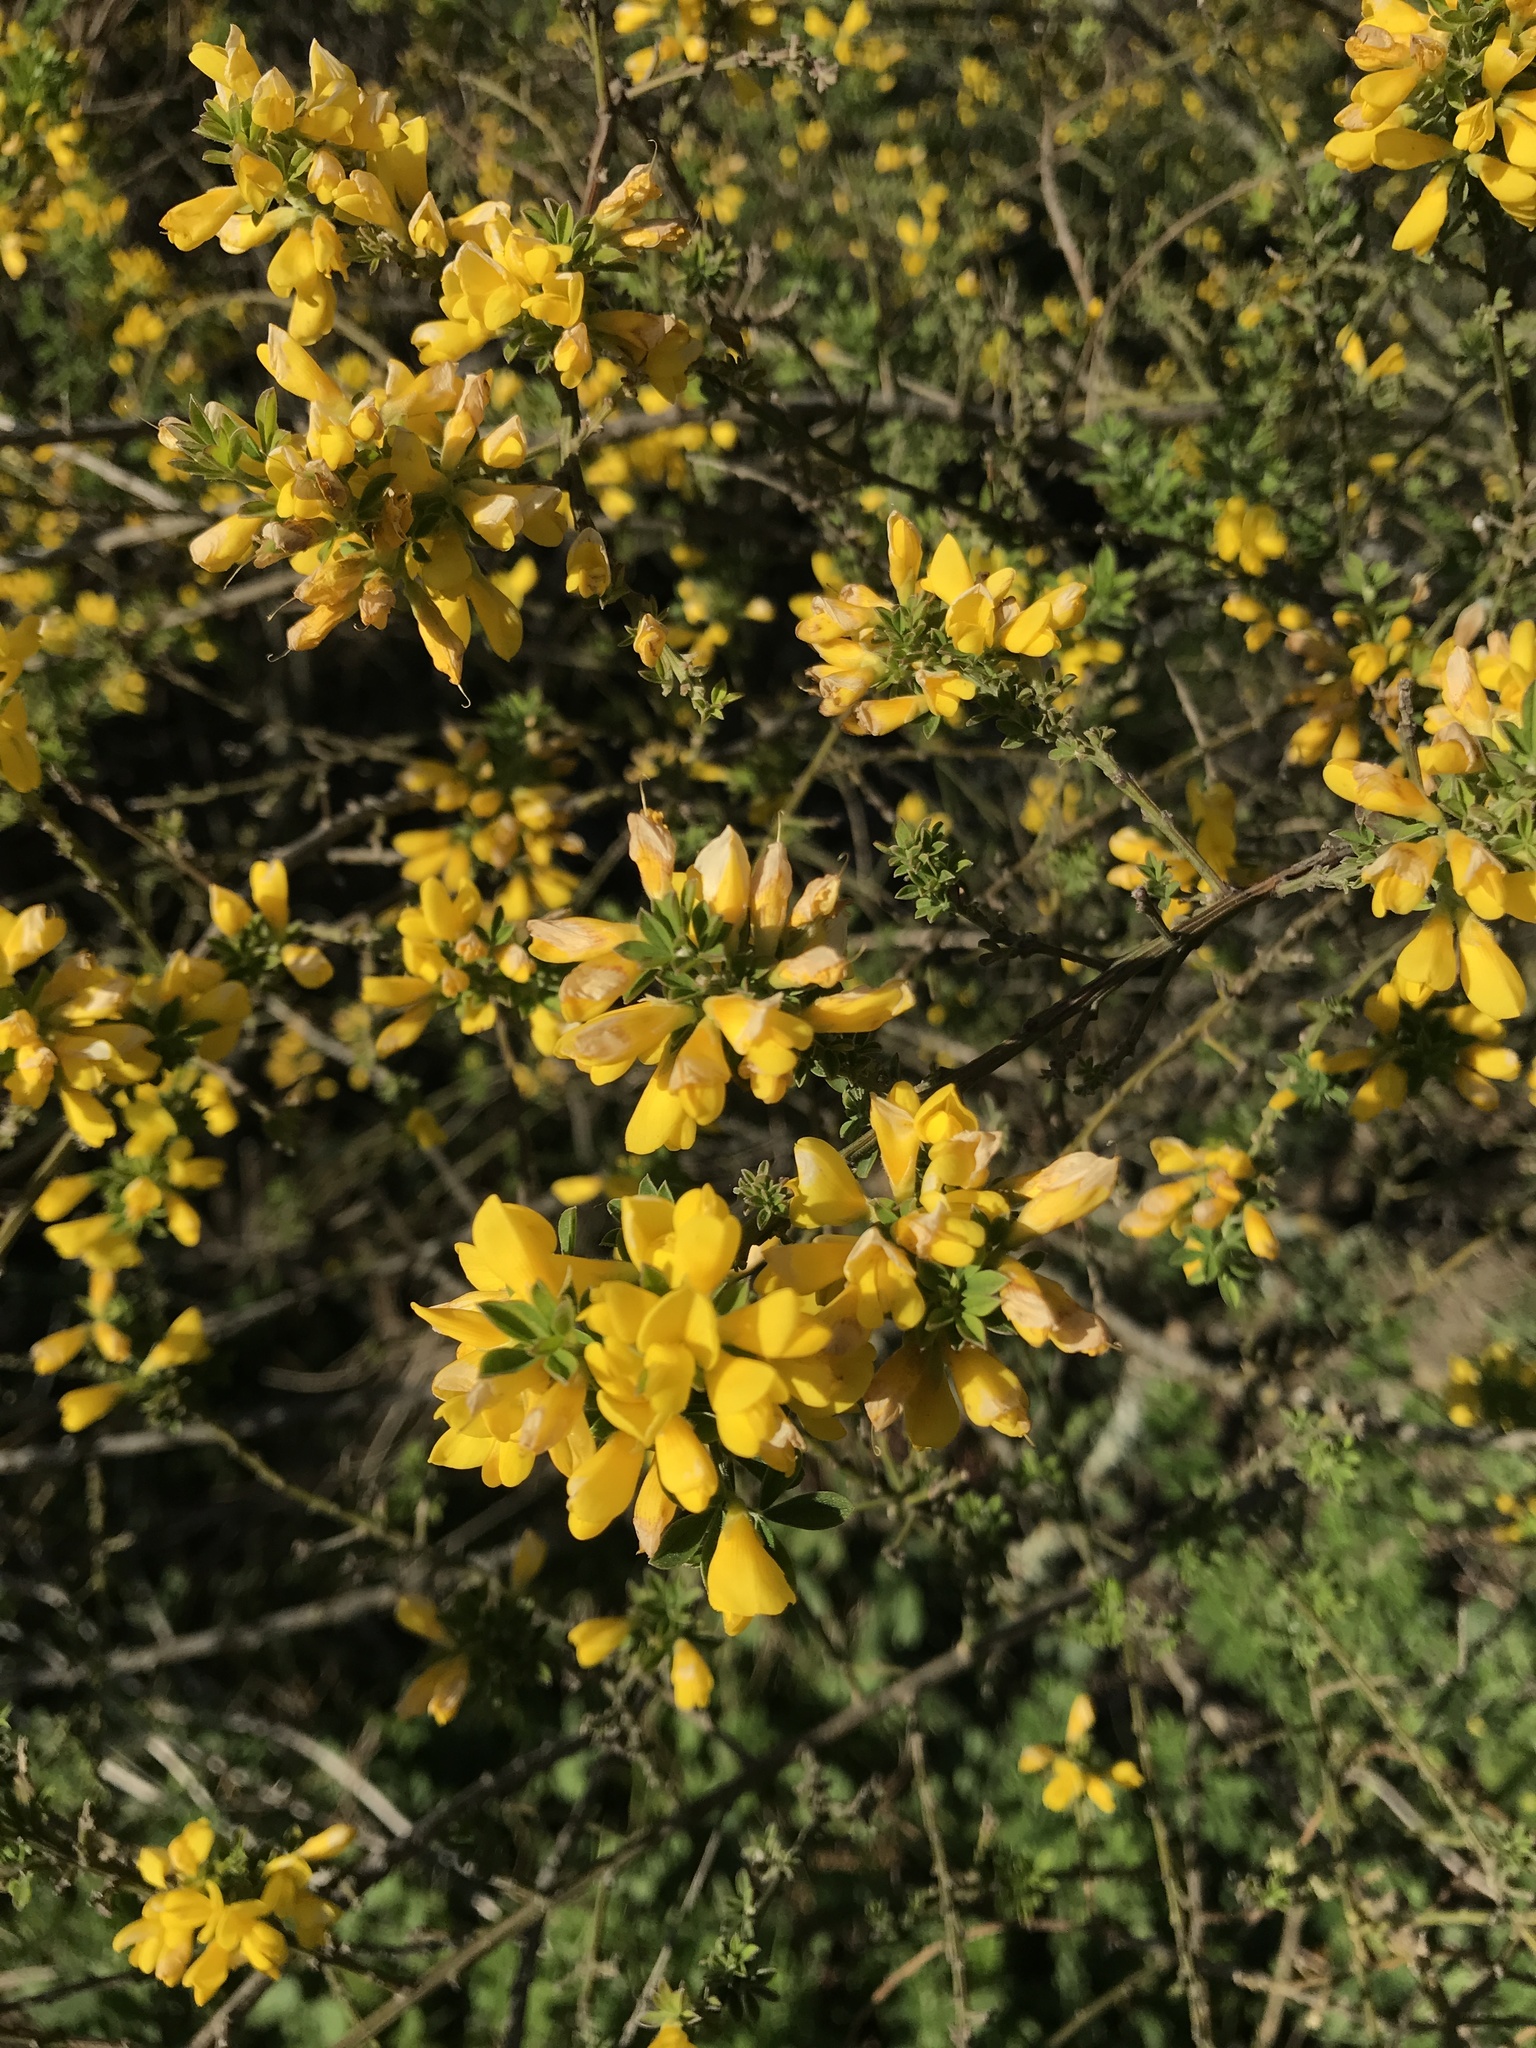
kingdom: Plantae
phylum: Tracheophyta
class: Magnoliopsida
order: Fabales
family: Fabaceae
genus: Genista
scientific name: Genista monspessulana
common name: Montpellier broom
